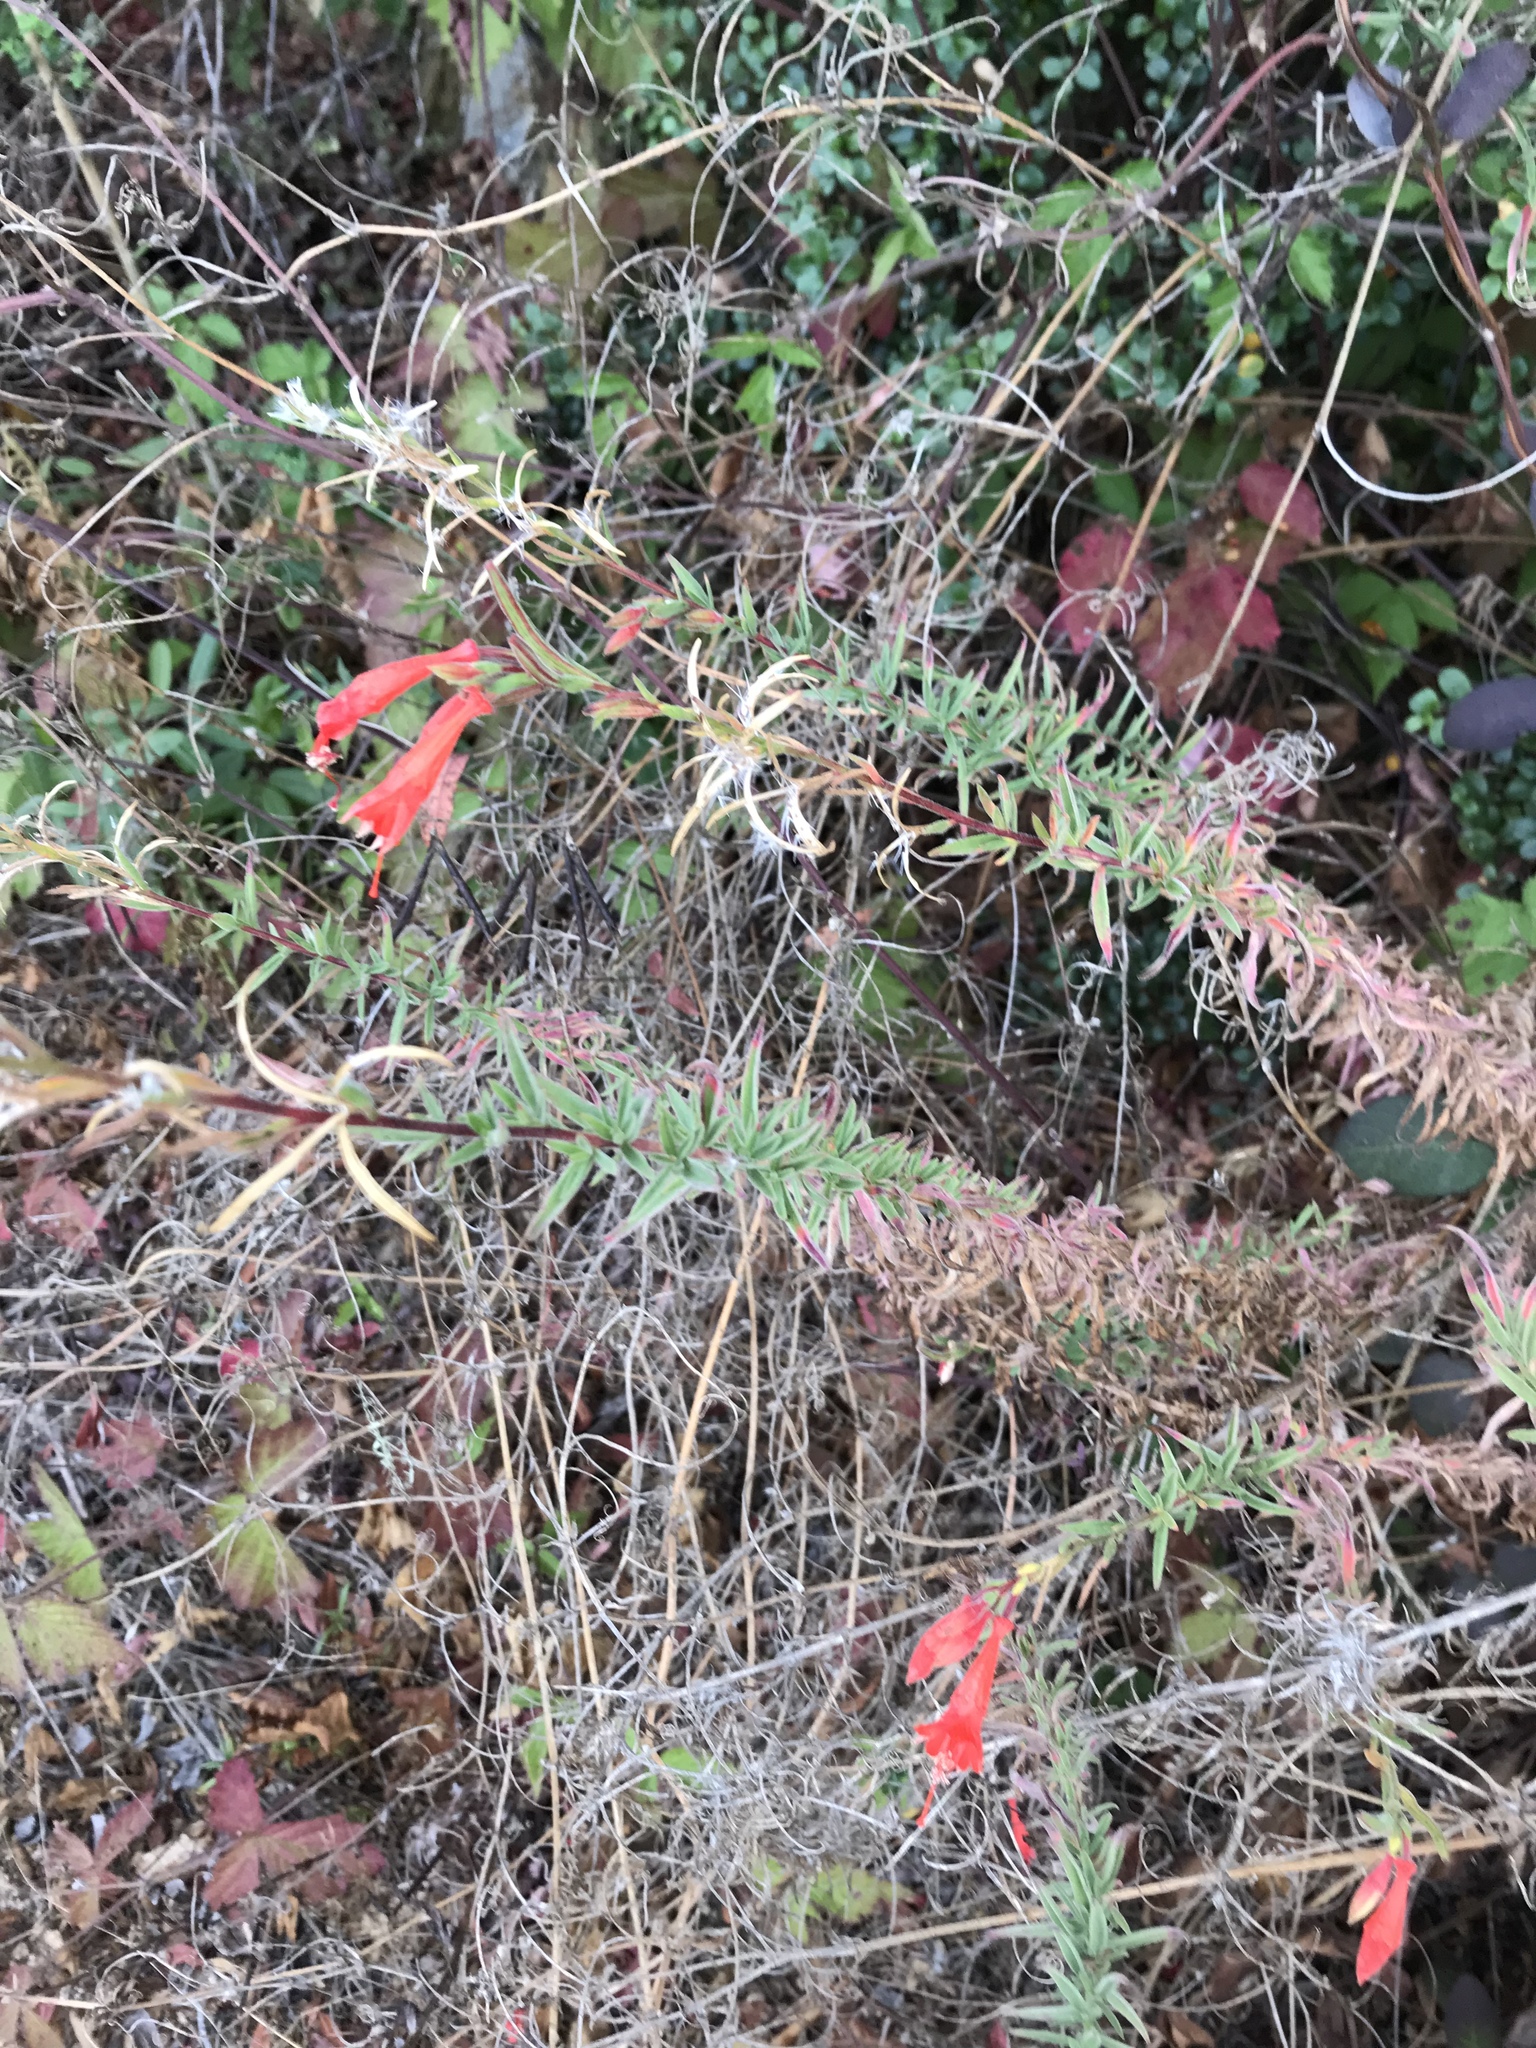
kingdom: Plantae
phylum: Tracheophyta
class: Magnoliopsida
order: Myrtales
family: Onagraceae
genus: Epilobium
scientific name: Epilobium canum
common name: California-fuchsia
